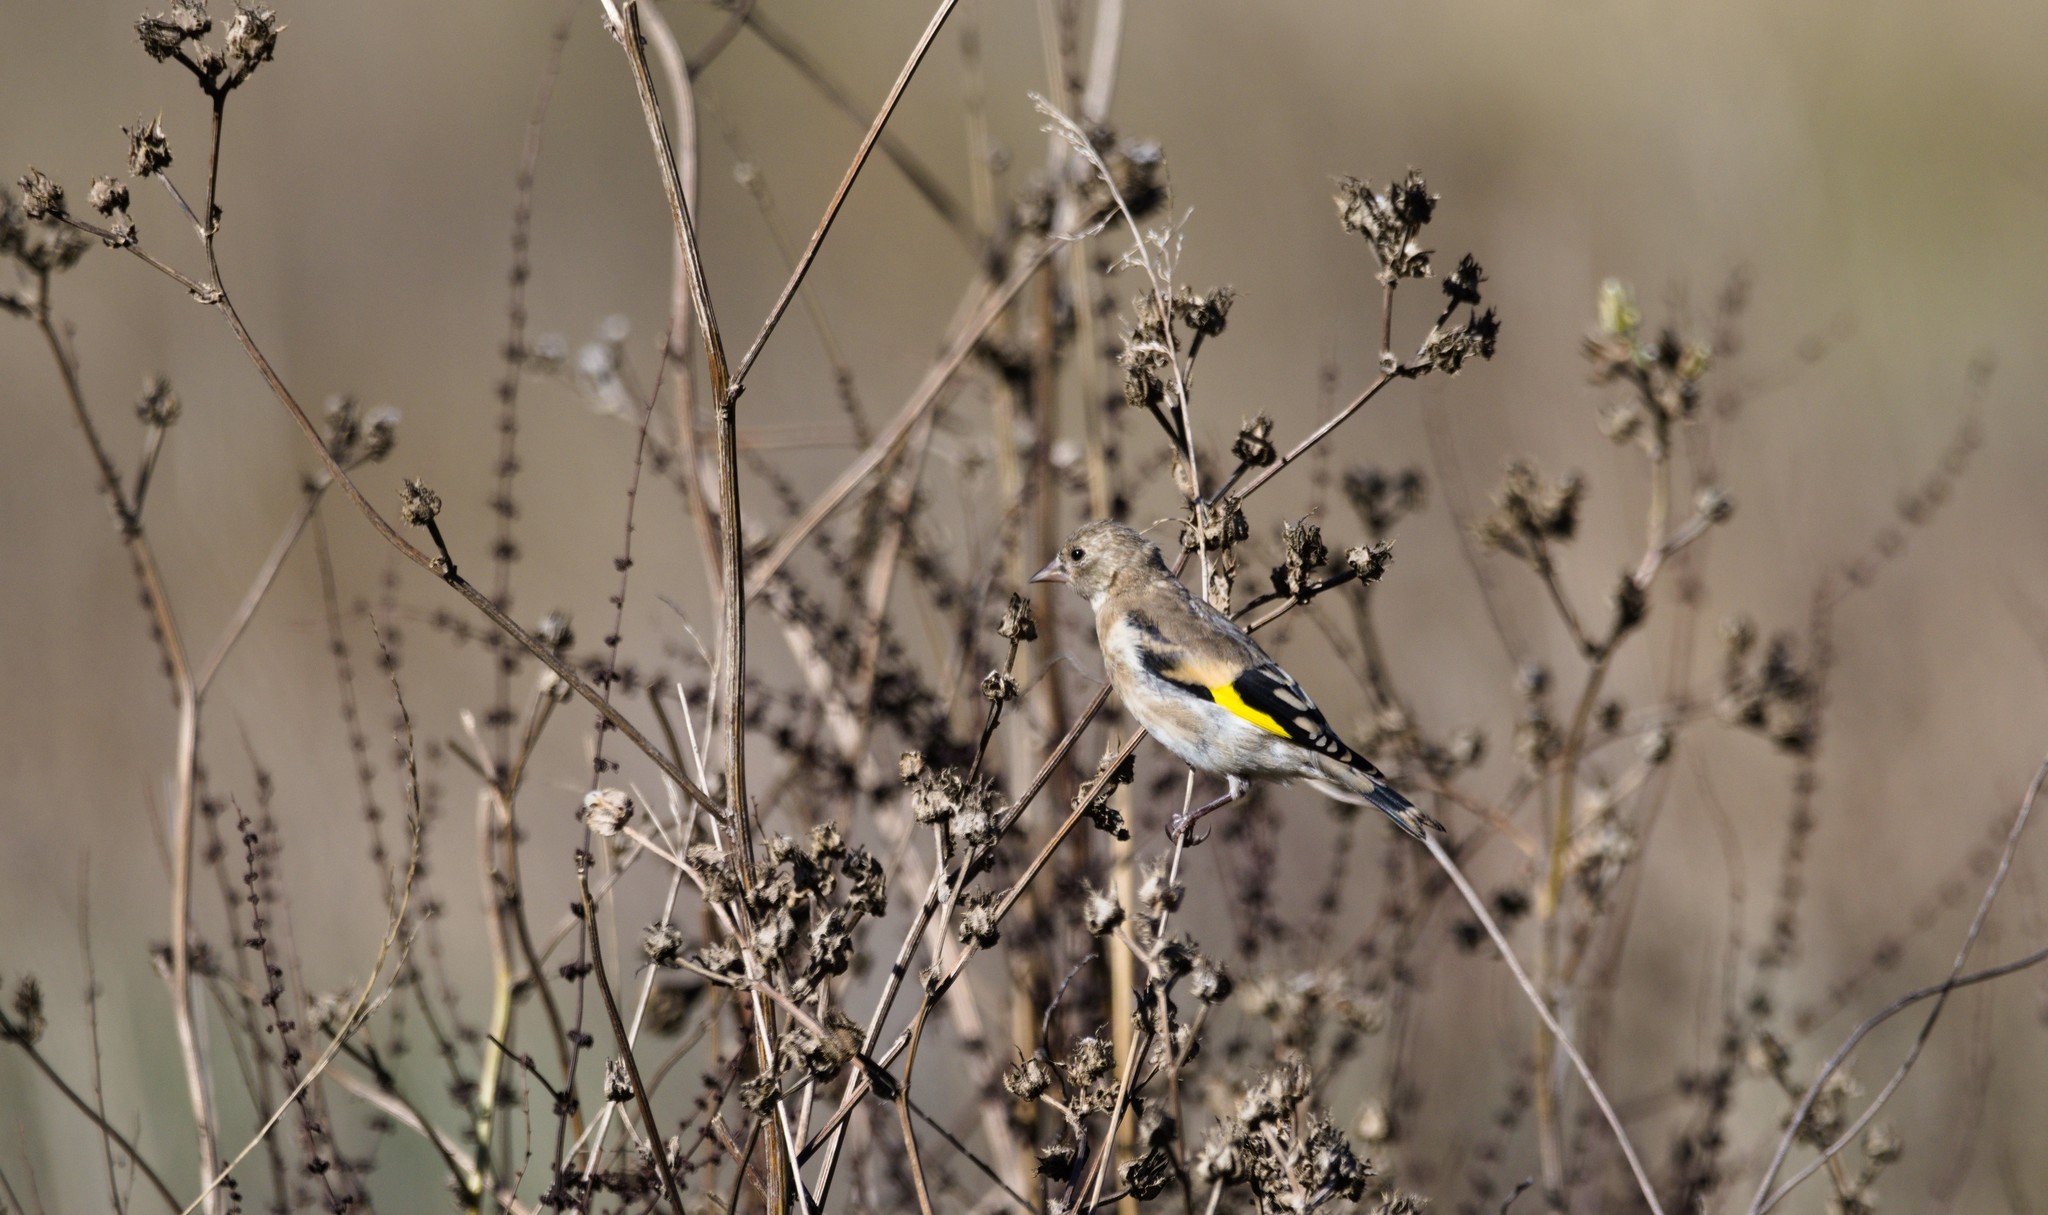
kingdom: Animalia
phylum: Chordata
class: Aves
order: Passeriformes
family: Fringillidae
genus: Carduelis
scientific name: Carduelis carduelis
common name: European goldfinch
